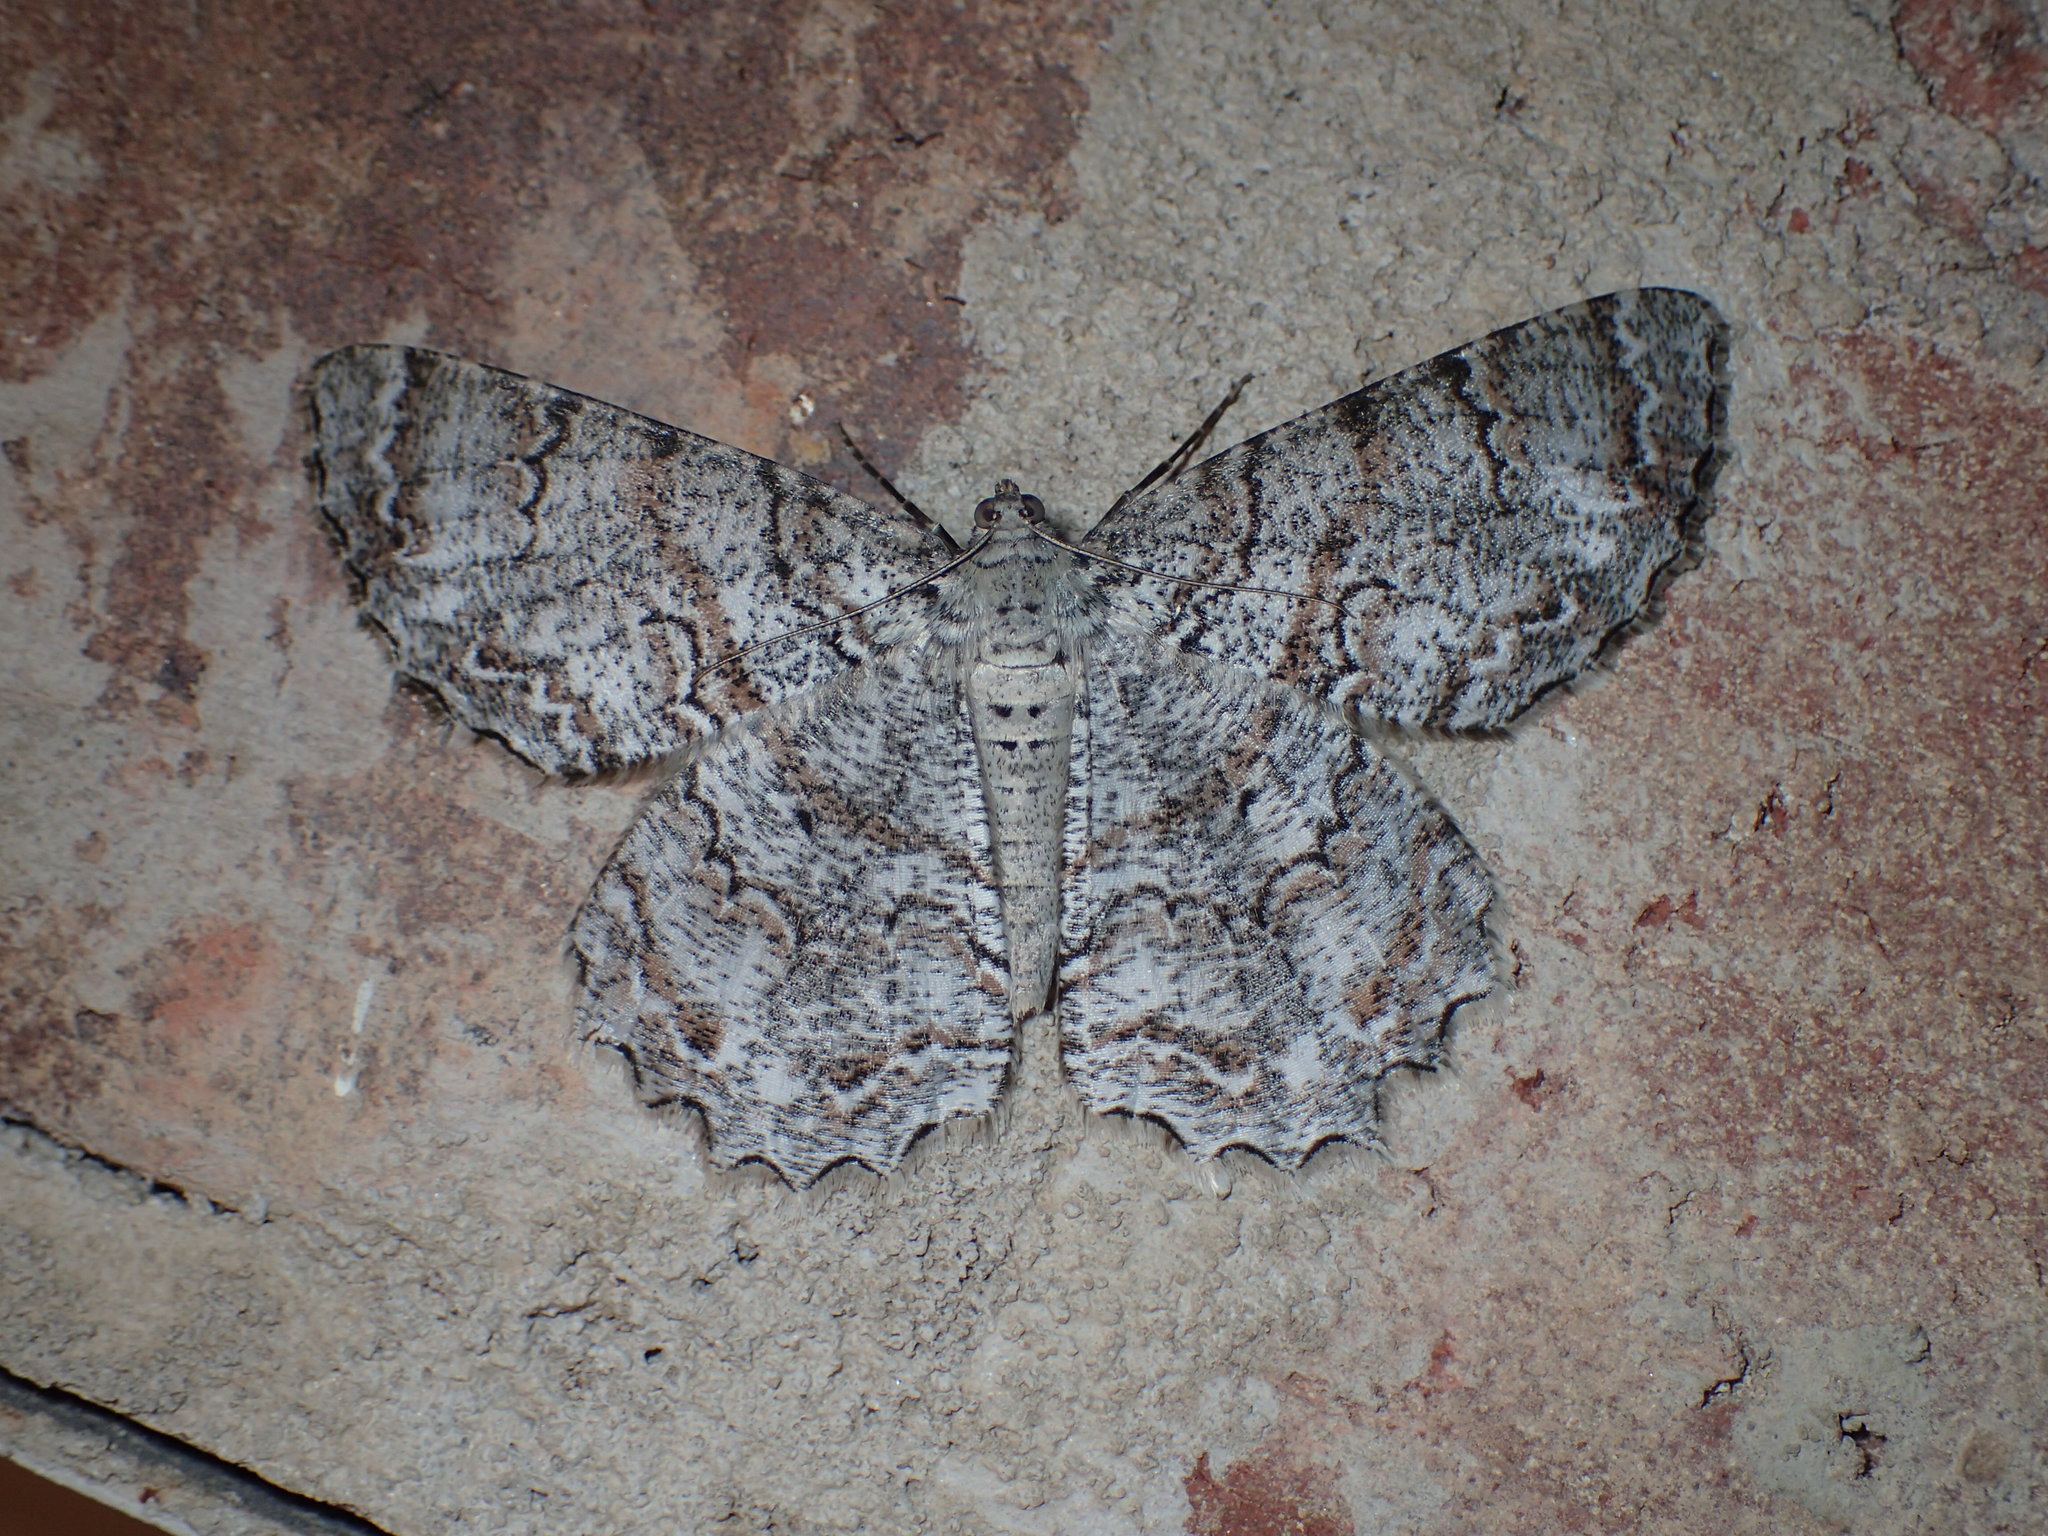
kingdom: Animalia
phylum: Arthropoda
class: Insecta
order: Lepidoptera
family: Geometridae
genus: Epimecis
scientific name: Epimecis hortaria
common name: Tulip-tree beauty
